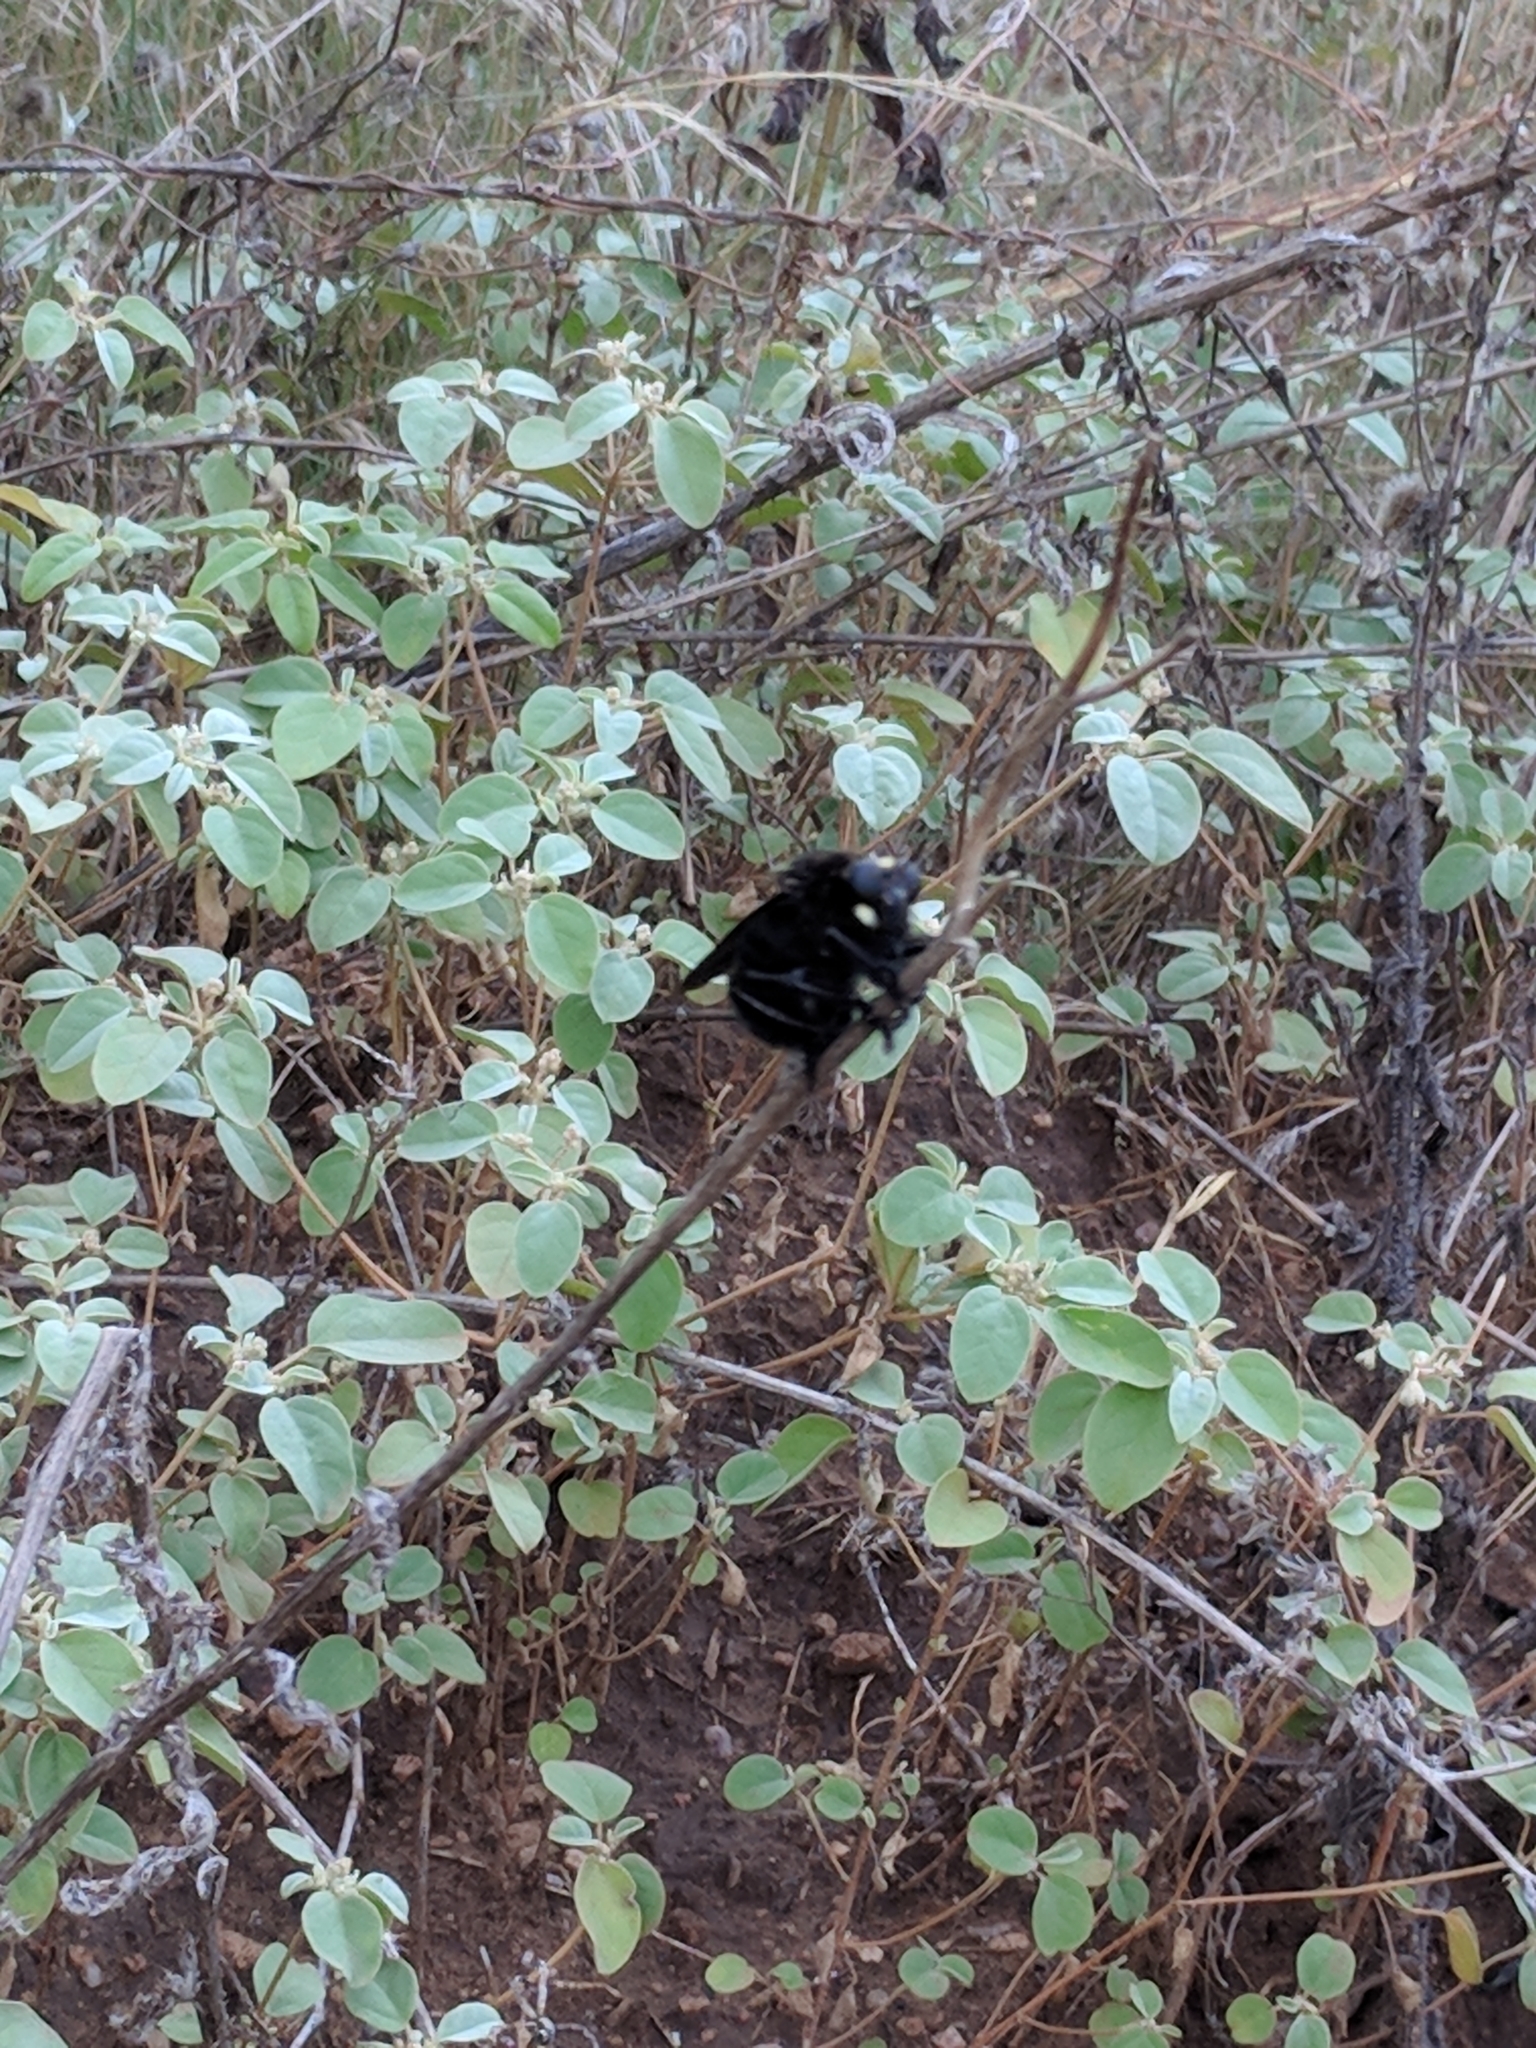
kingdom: Animalia
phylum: Arthropoda
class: Insecta
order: Diptera
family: Asilidae
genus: Mallophora
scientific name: Mallophora leschenaultii
